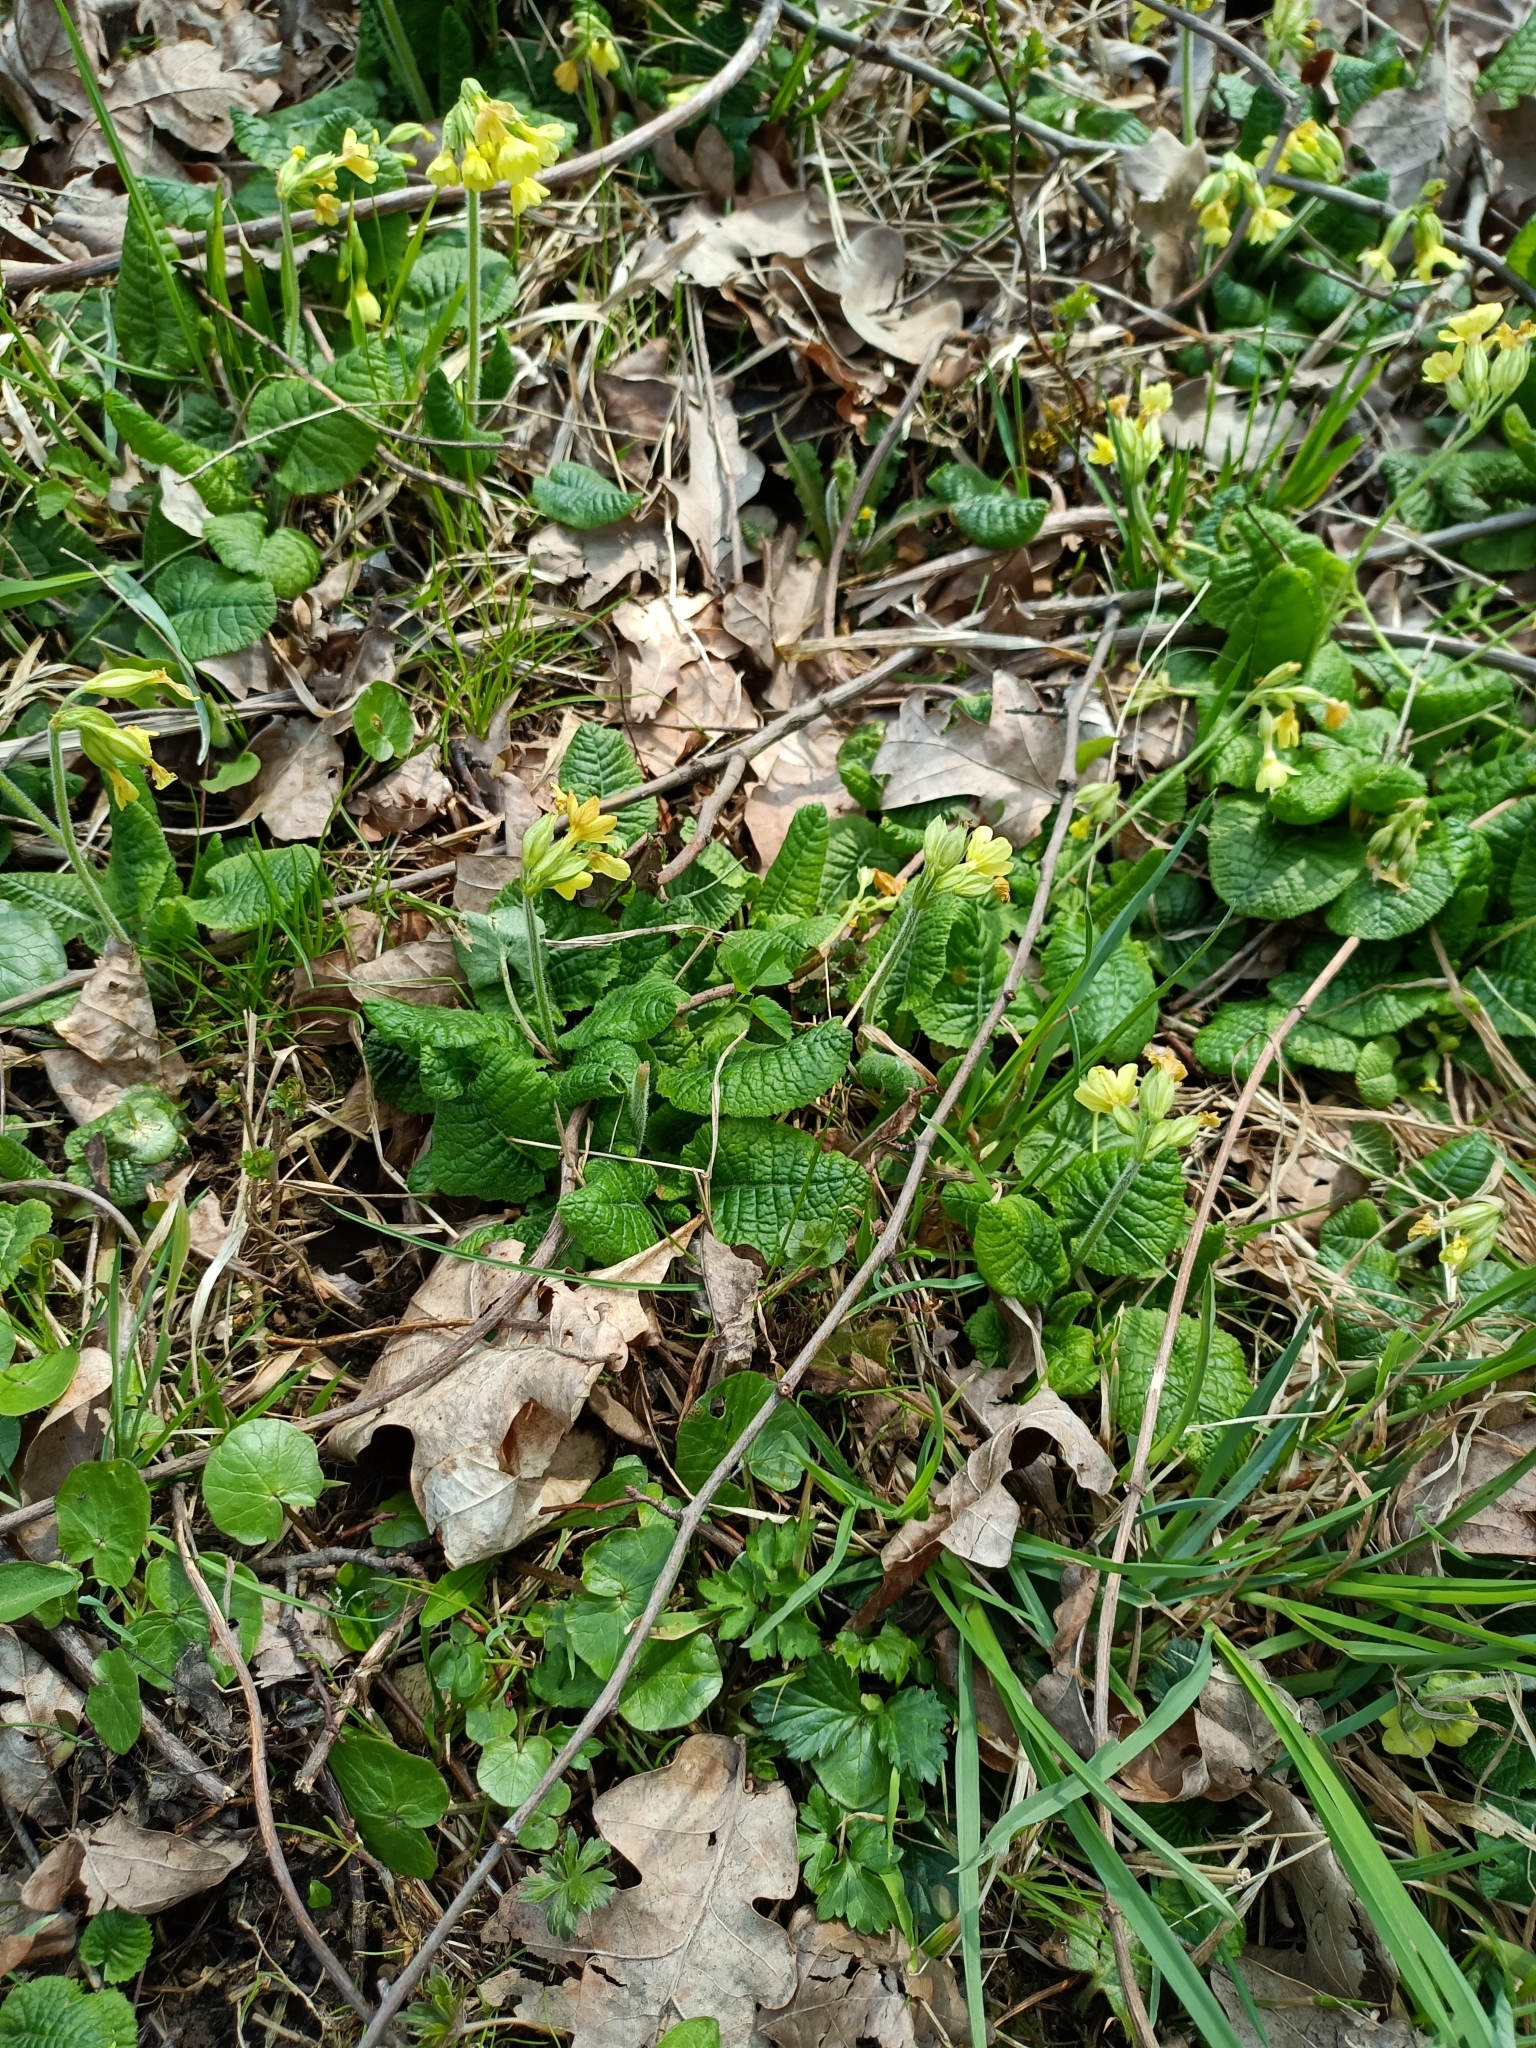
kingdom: Plantae
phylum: Tracheophyta
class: Magnoliopsida
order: Ericales
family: Primulaceae
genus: Primula
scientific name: Primula elatior
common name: Oxlip
